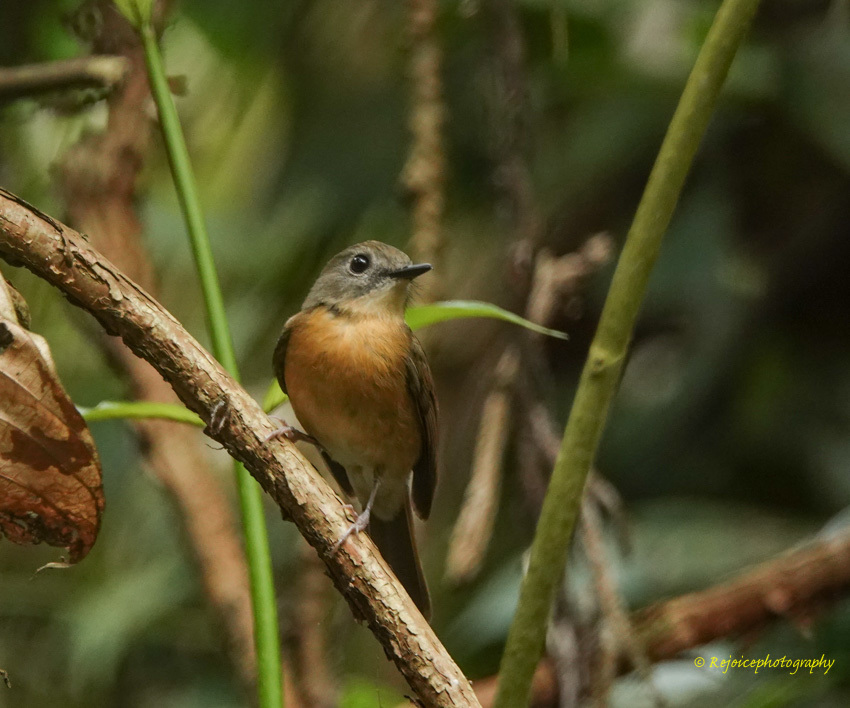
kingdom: Animalia
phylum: Chordata
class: Aves
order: Passeriformes
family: Muscicapidae
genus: Cyornis
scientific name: Cyornis poliogenys
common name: Pale-chinned blue flycatcher
